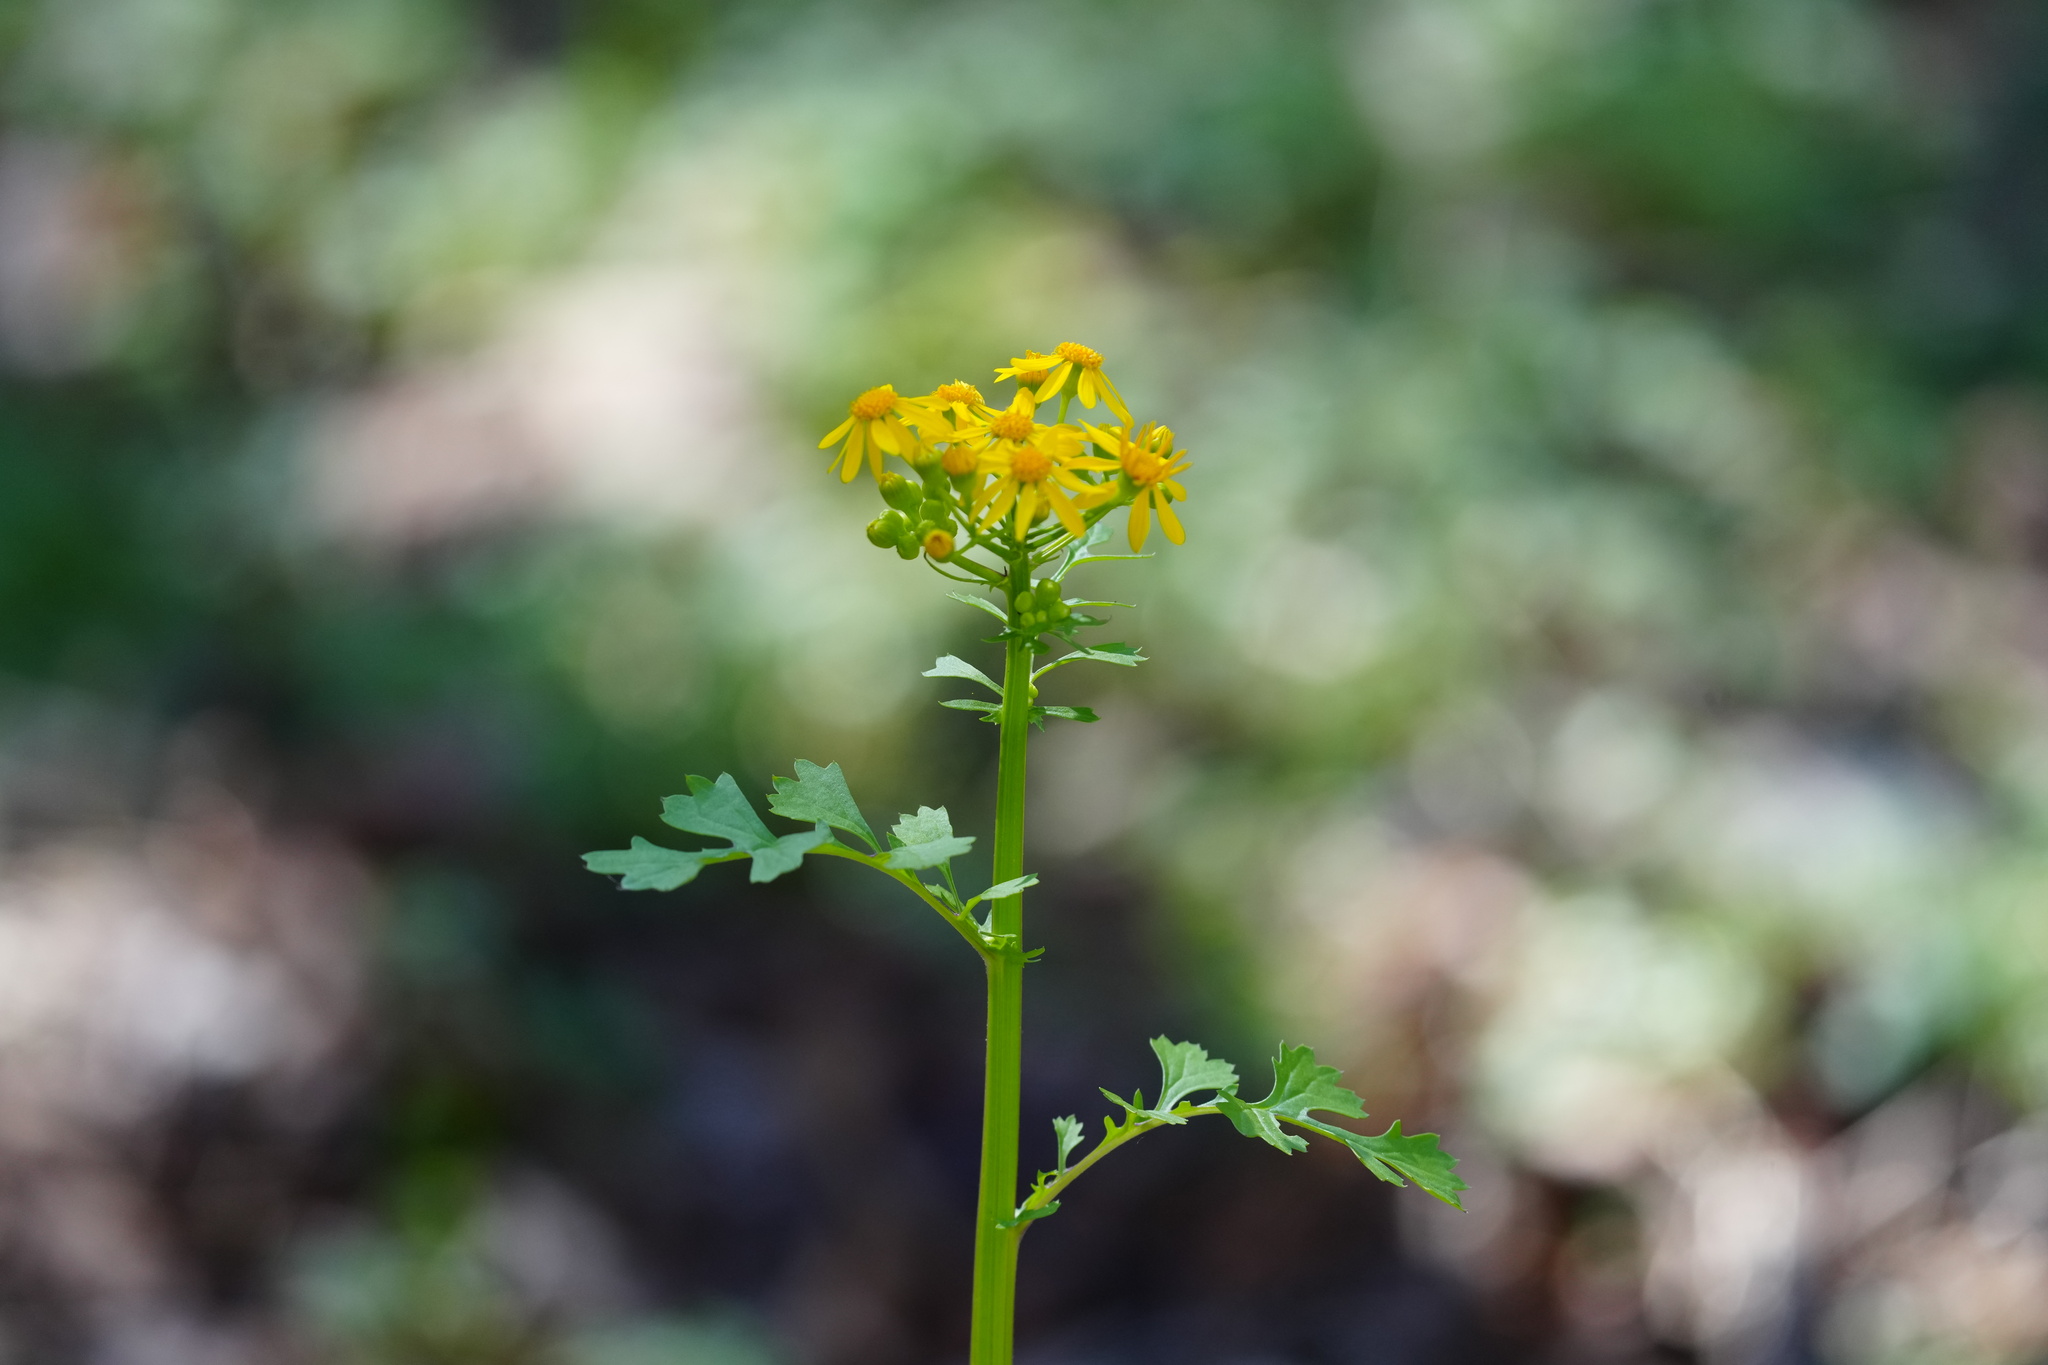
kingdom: Plantae
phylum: Tracheophyta
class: Magnoliopsida
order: Asterales
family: Asteraceae
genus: Packera
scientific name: Packera glabella
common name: Butterweed
